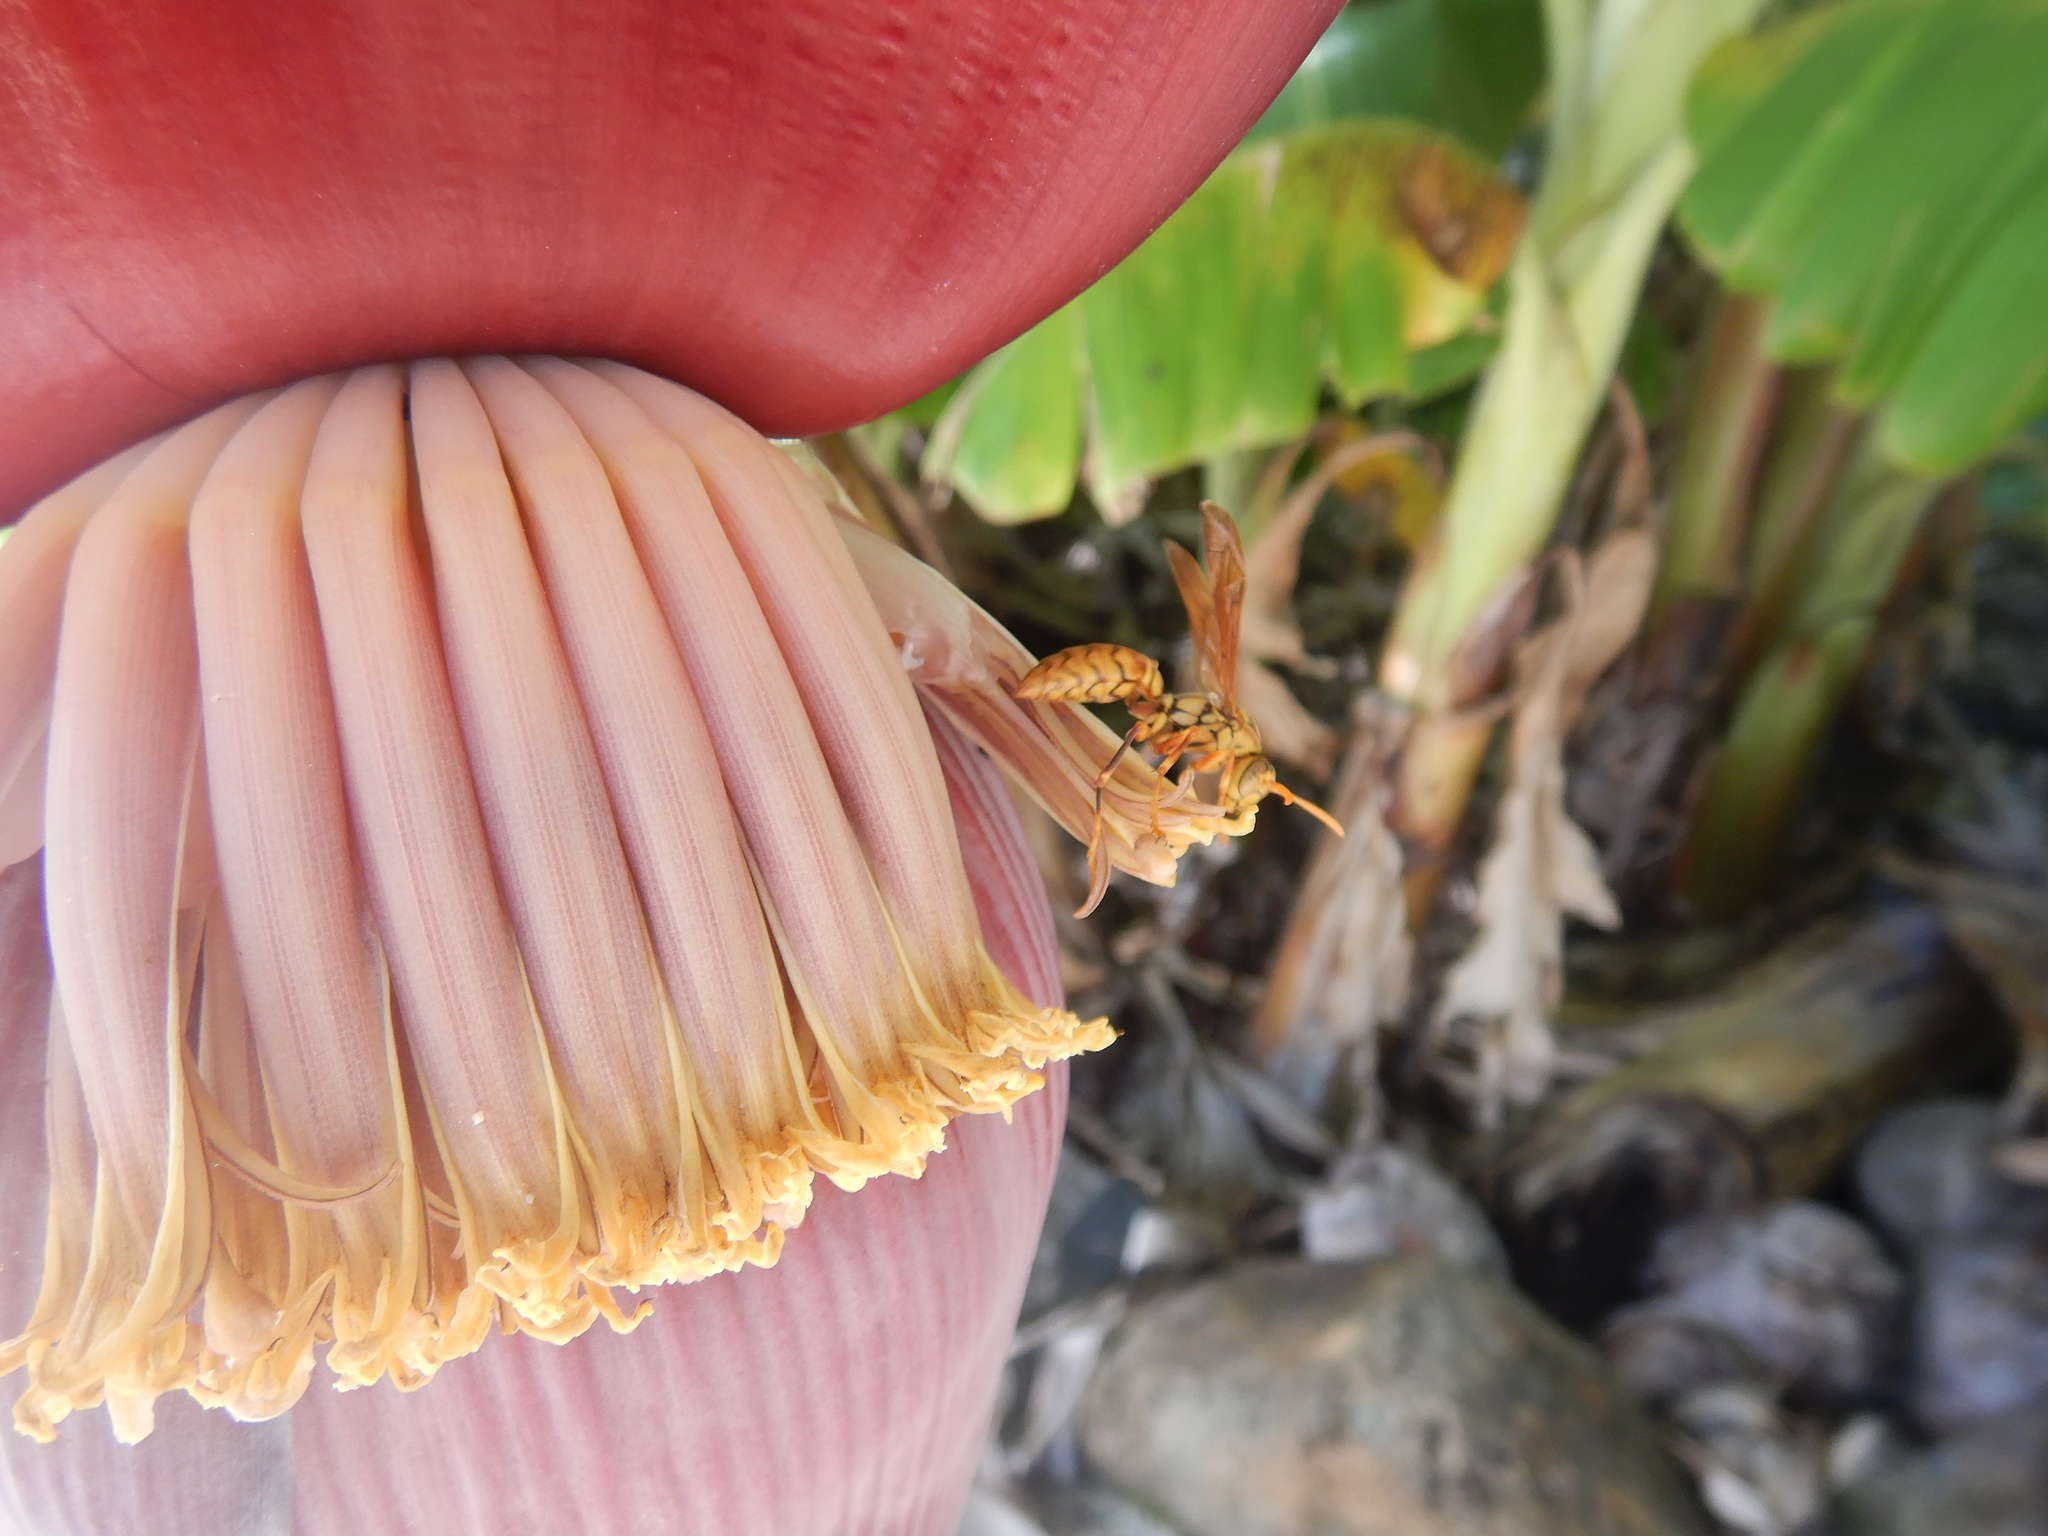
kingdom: Animalia
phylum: Arthropoda
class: Insecta
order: Hymenoptera
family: Eumenidae
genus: Polistes
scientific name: Polistes olivaceus
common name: Paper wasp
